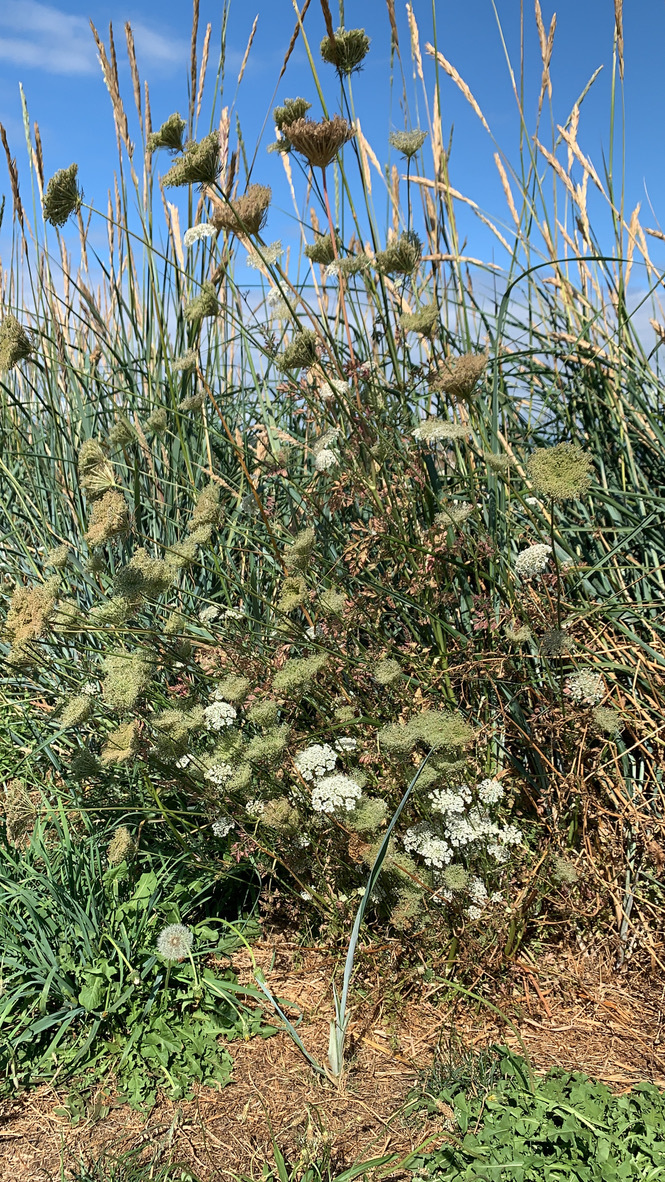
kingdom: Plantae
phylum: Tracheophyta
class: Magnoliopsida
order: Apiales
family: Apiaceae
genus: Daucus
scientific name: Daucus carota
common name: Wild carrot
